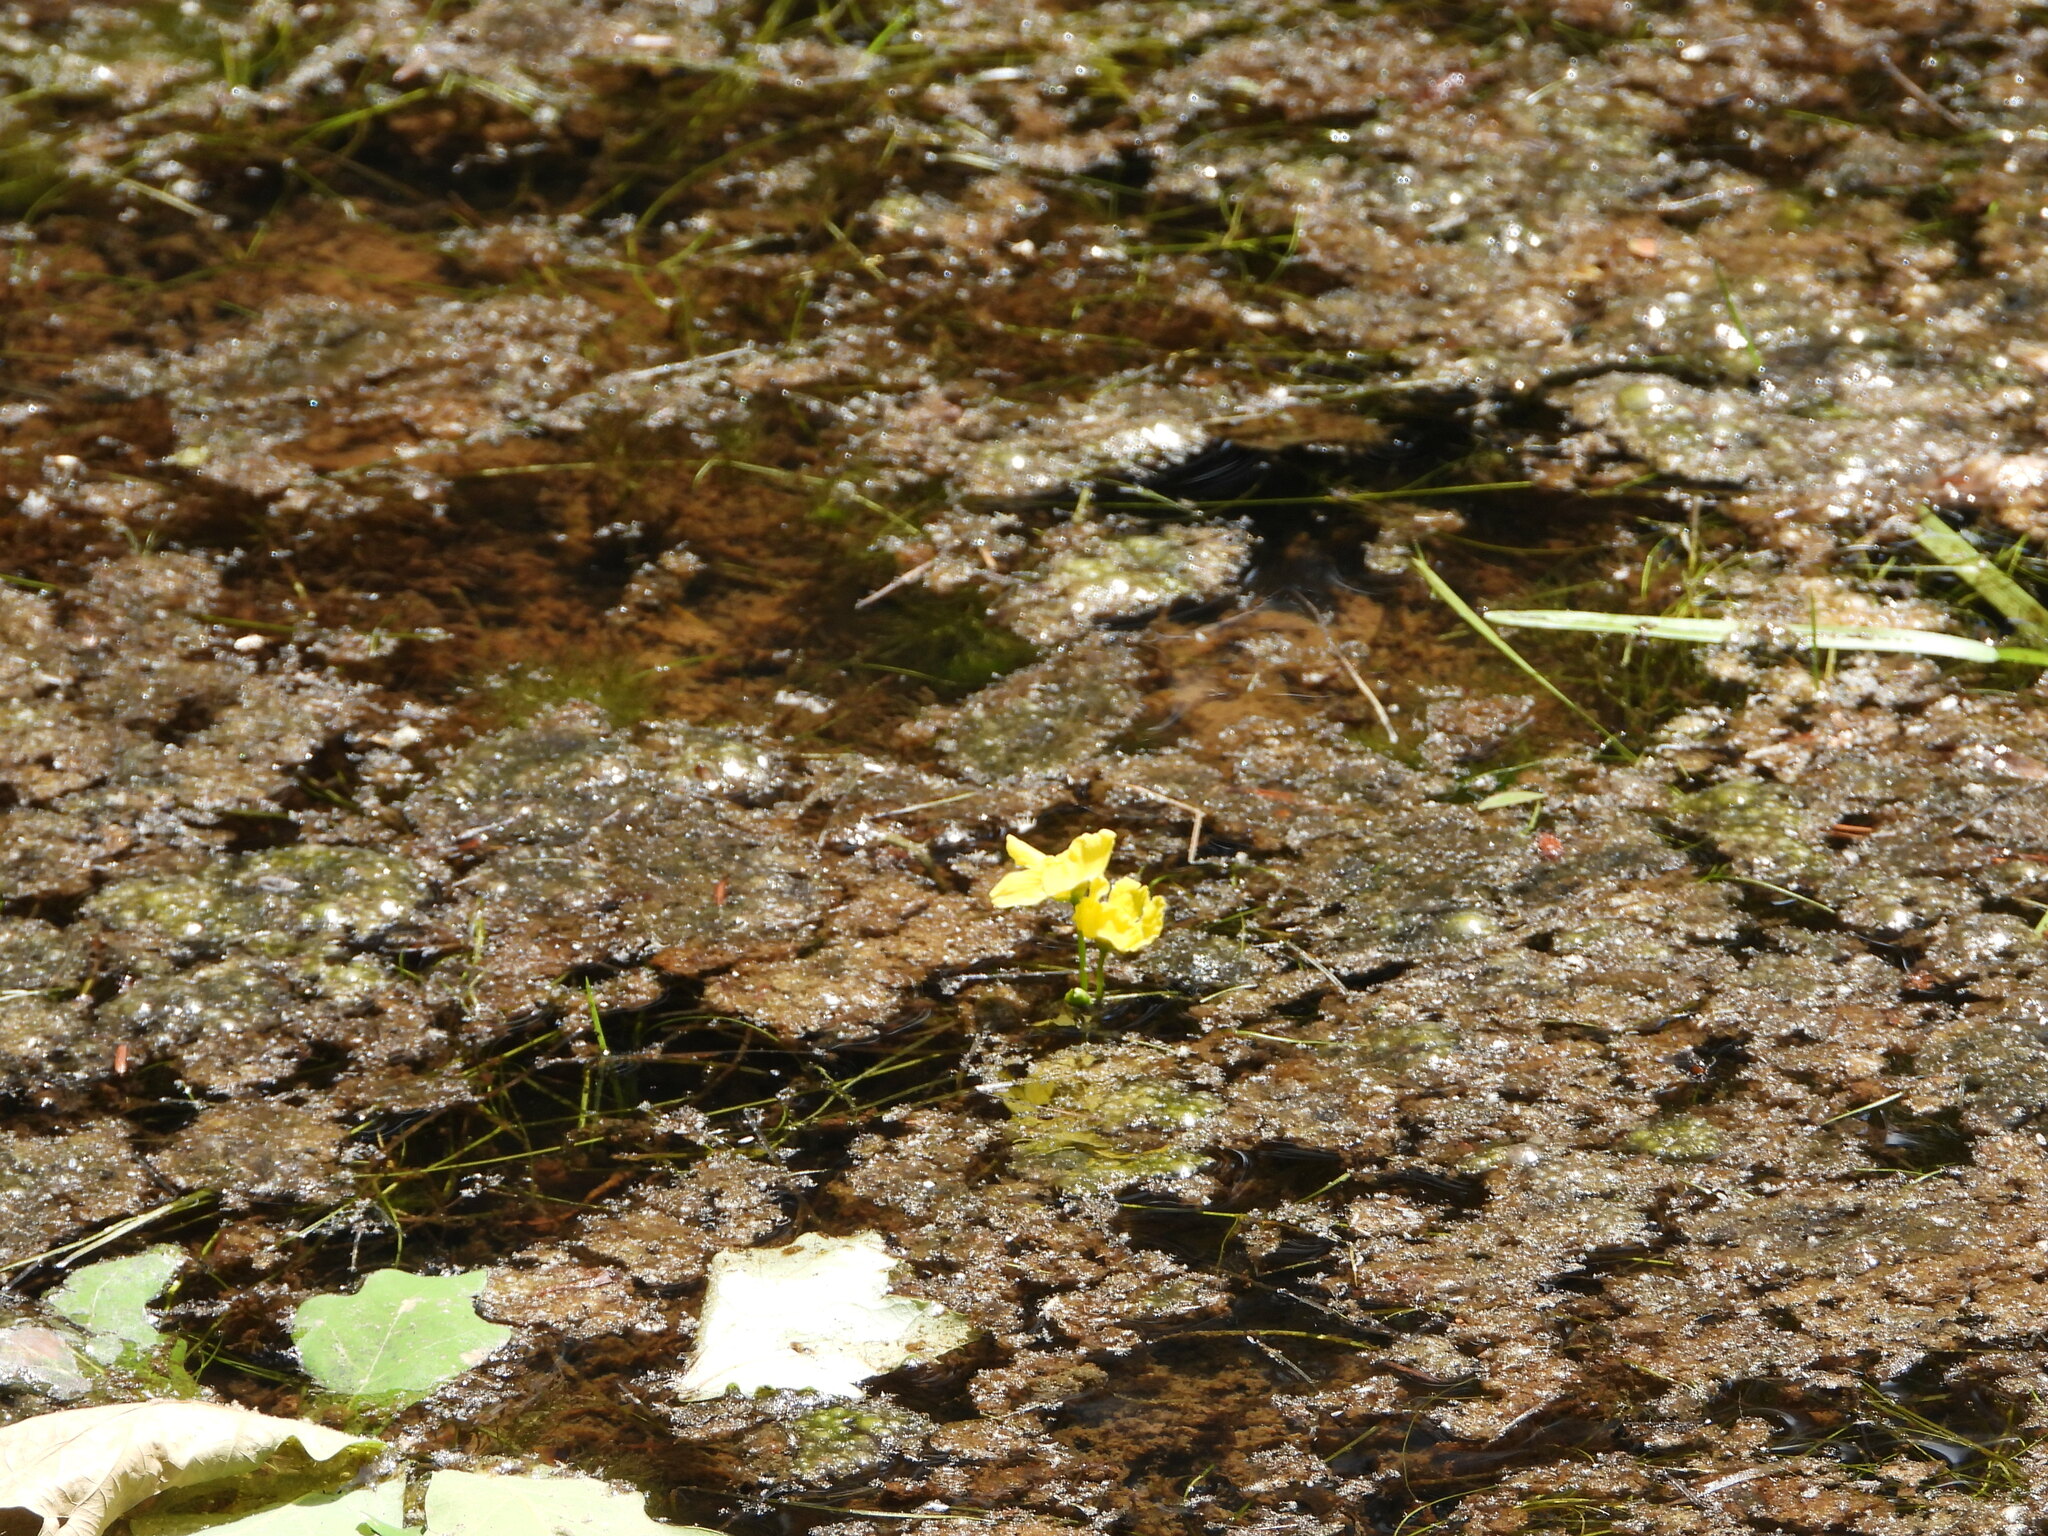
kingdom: Plantae
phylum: Tracheophyta
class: Magnoliopsida
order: Lamiales
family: Lentibulariaceae
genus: Utricularia
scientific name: Utricularia inflata
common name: Floating bladderwort
